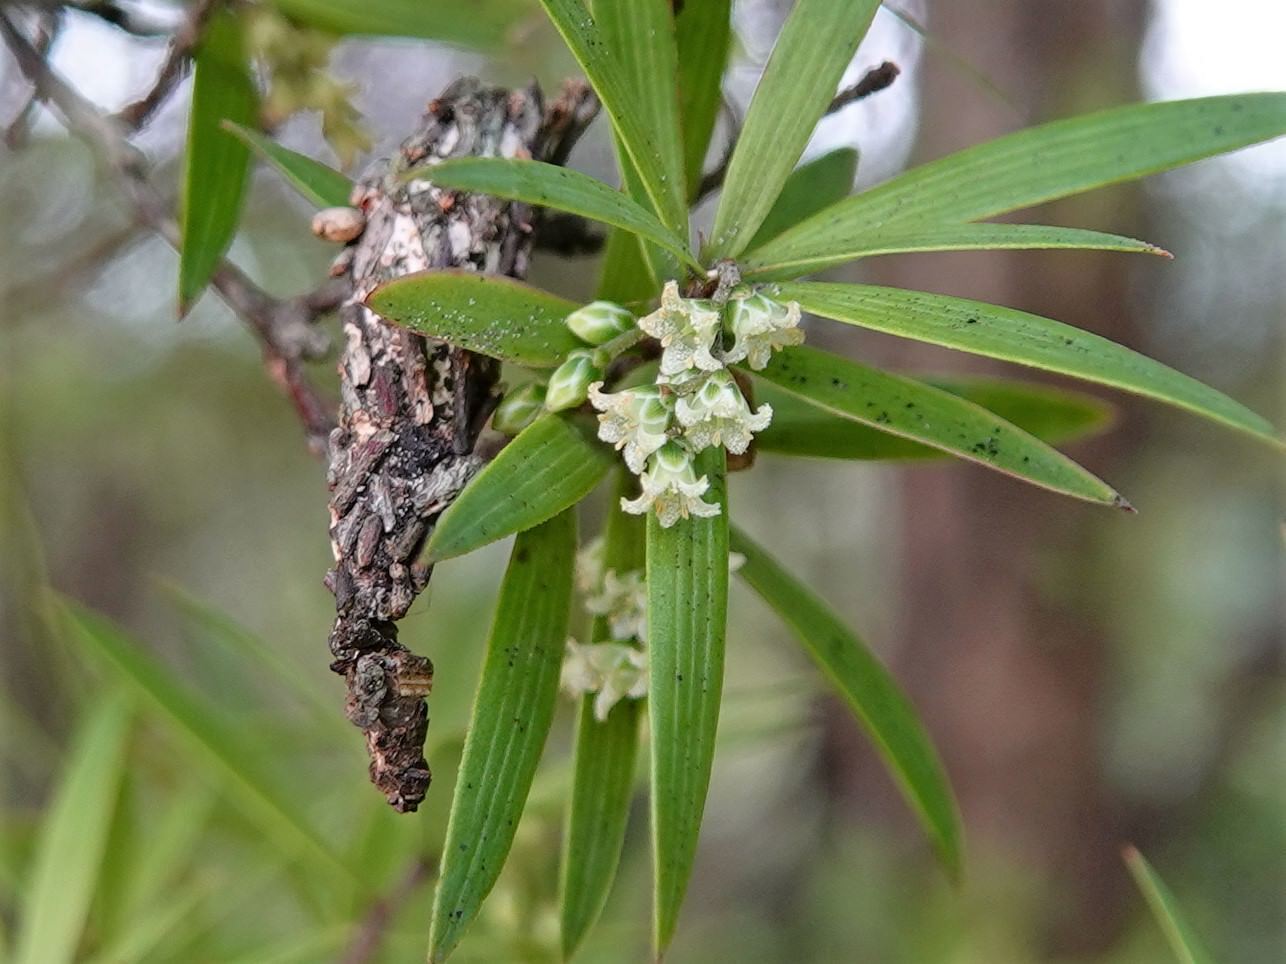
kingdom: Plantae
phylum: Tracheophyta
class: Magnoliopsida
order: Ericales
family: Ericaceae
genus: Leucopogon
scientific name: Leucopogon fasciculatus
